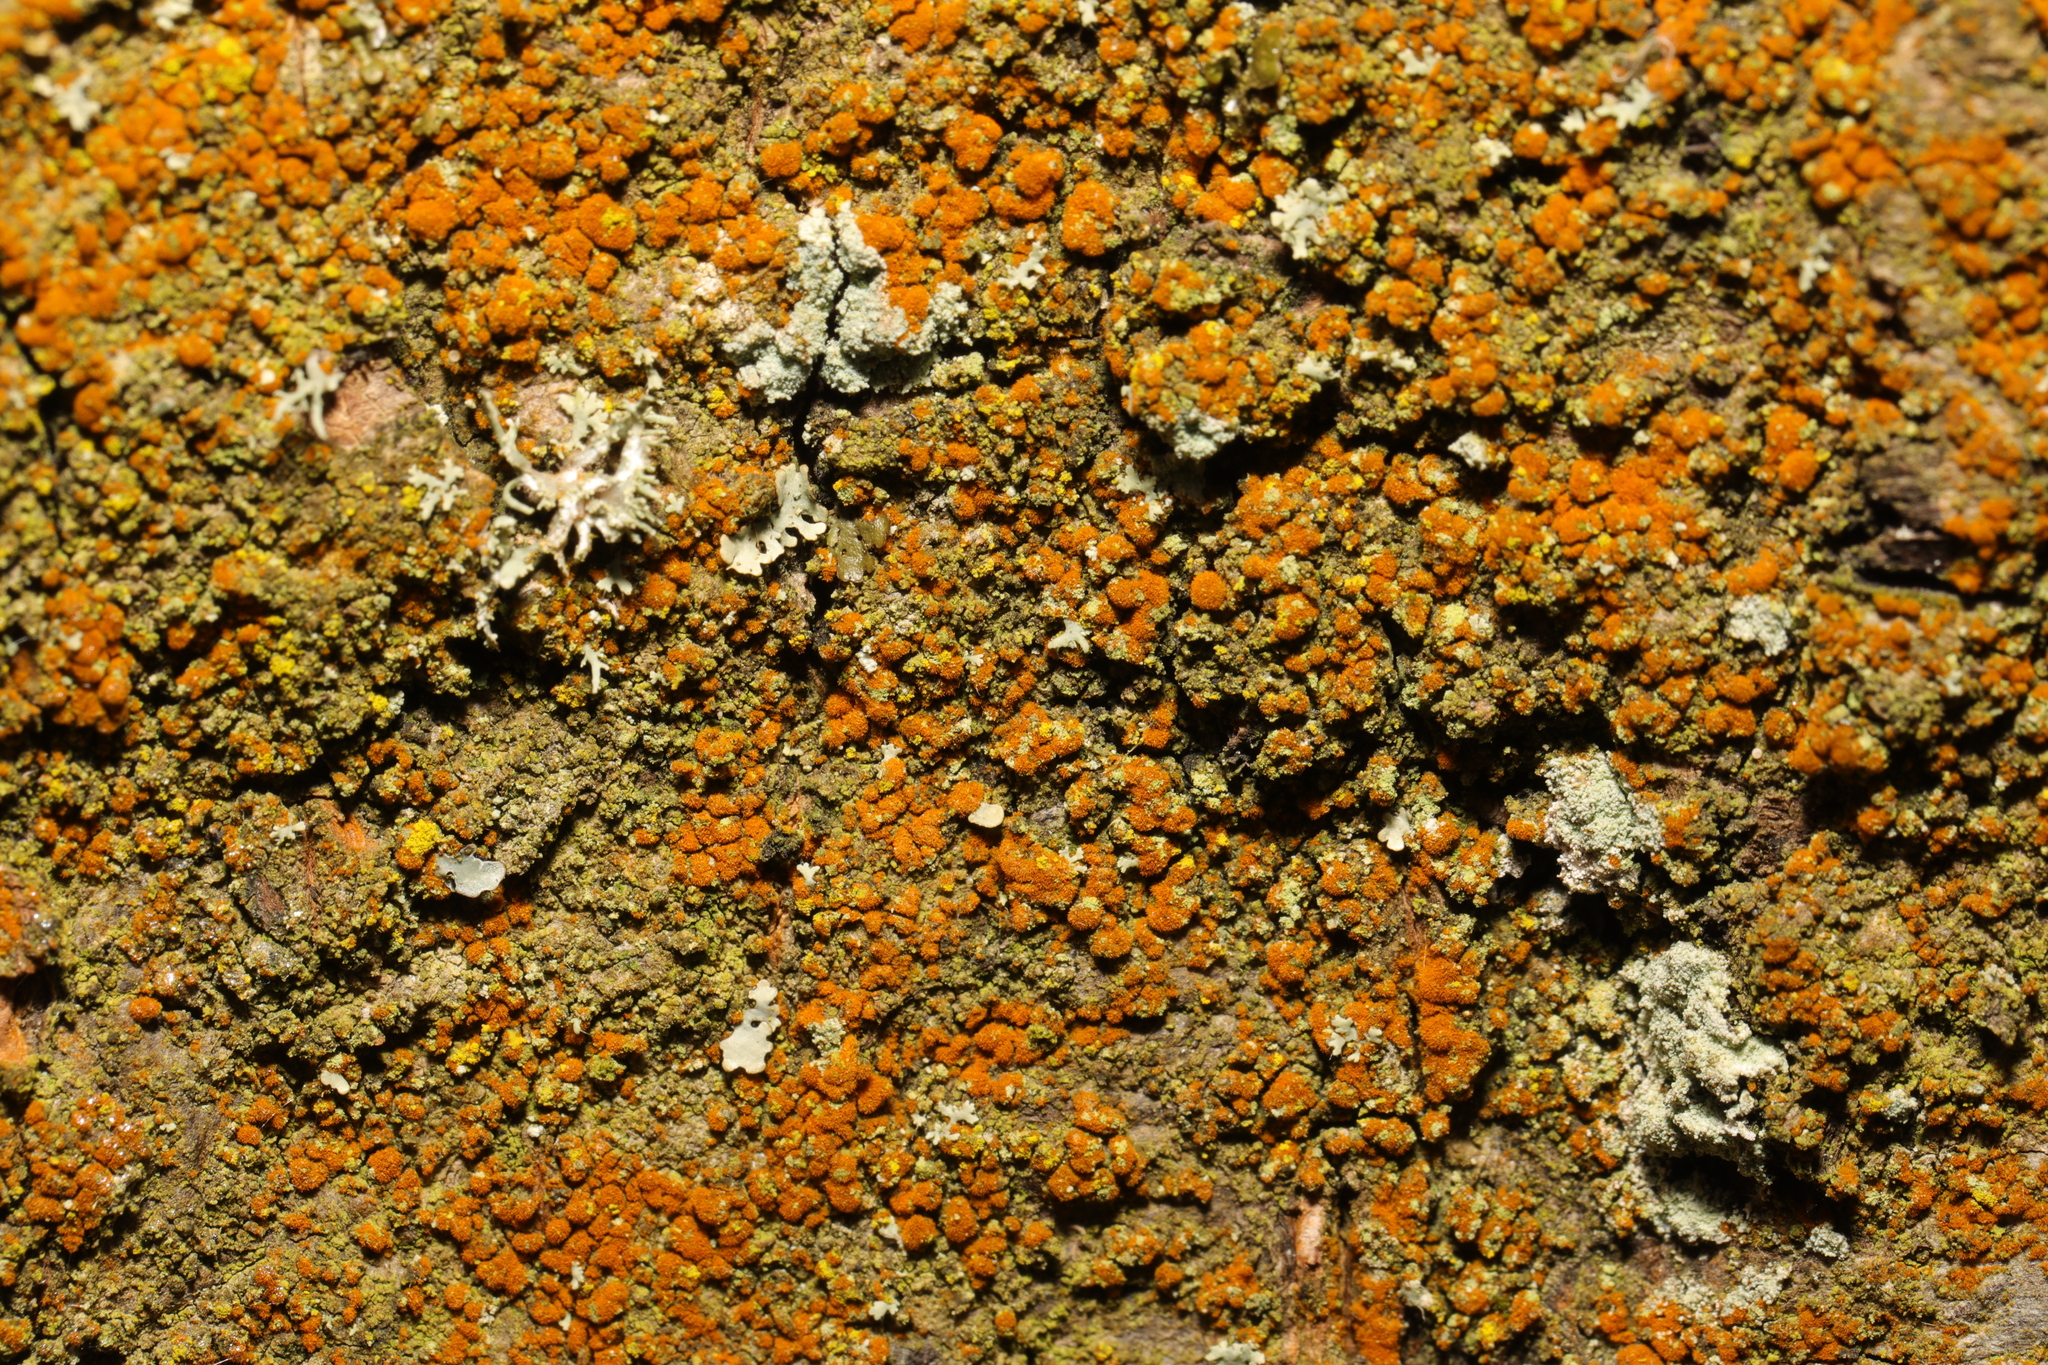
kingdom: Plantae
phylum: Chlorophyta
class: Ulvophyceae
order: Trentepohliales
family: Trentepohliaceae
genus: Trentepohlia
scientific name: Trentepohlia
